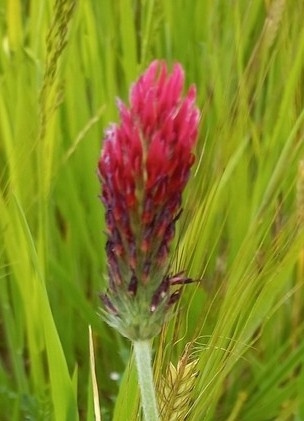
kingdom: Plantae
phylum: Tracheophyta
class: Magnoliopsida
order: Fabales
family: Fabaceae
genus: Trifolium
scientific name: Trifolium incarnatum
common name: Crimson clover
